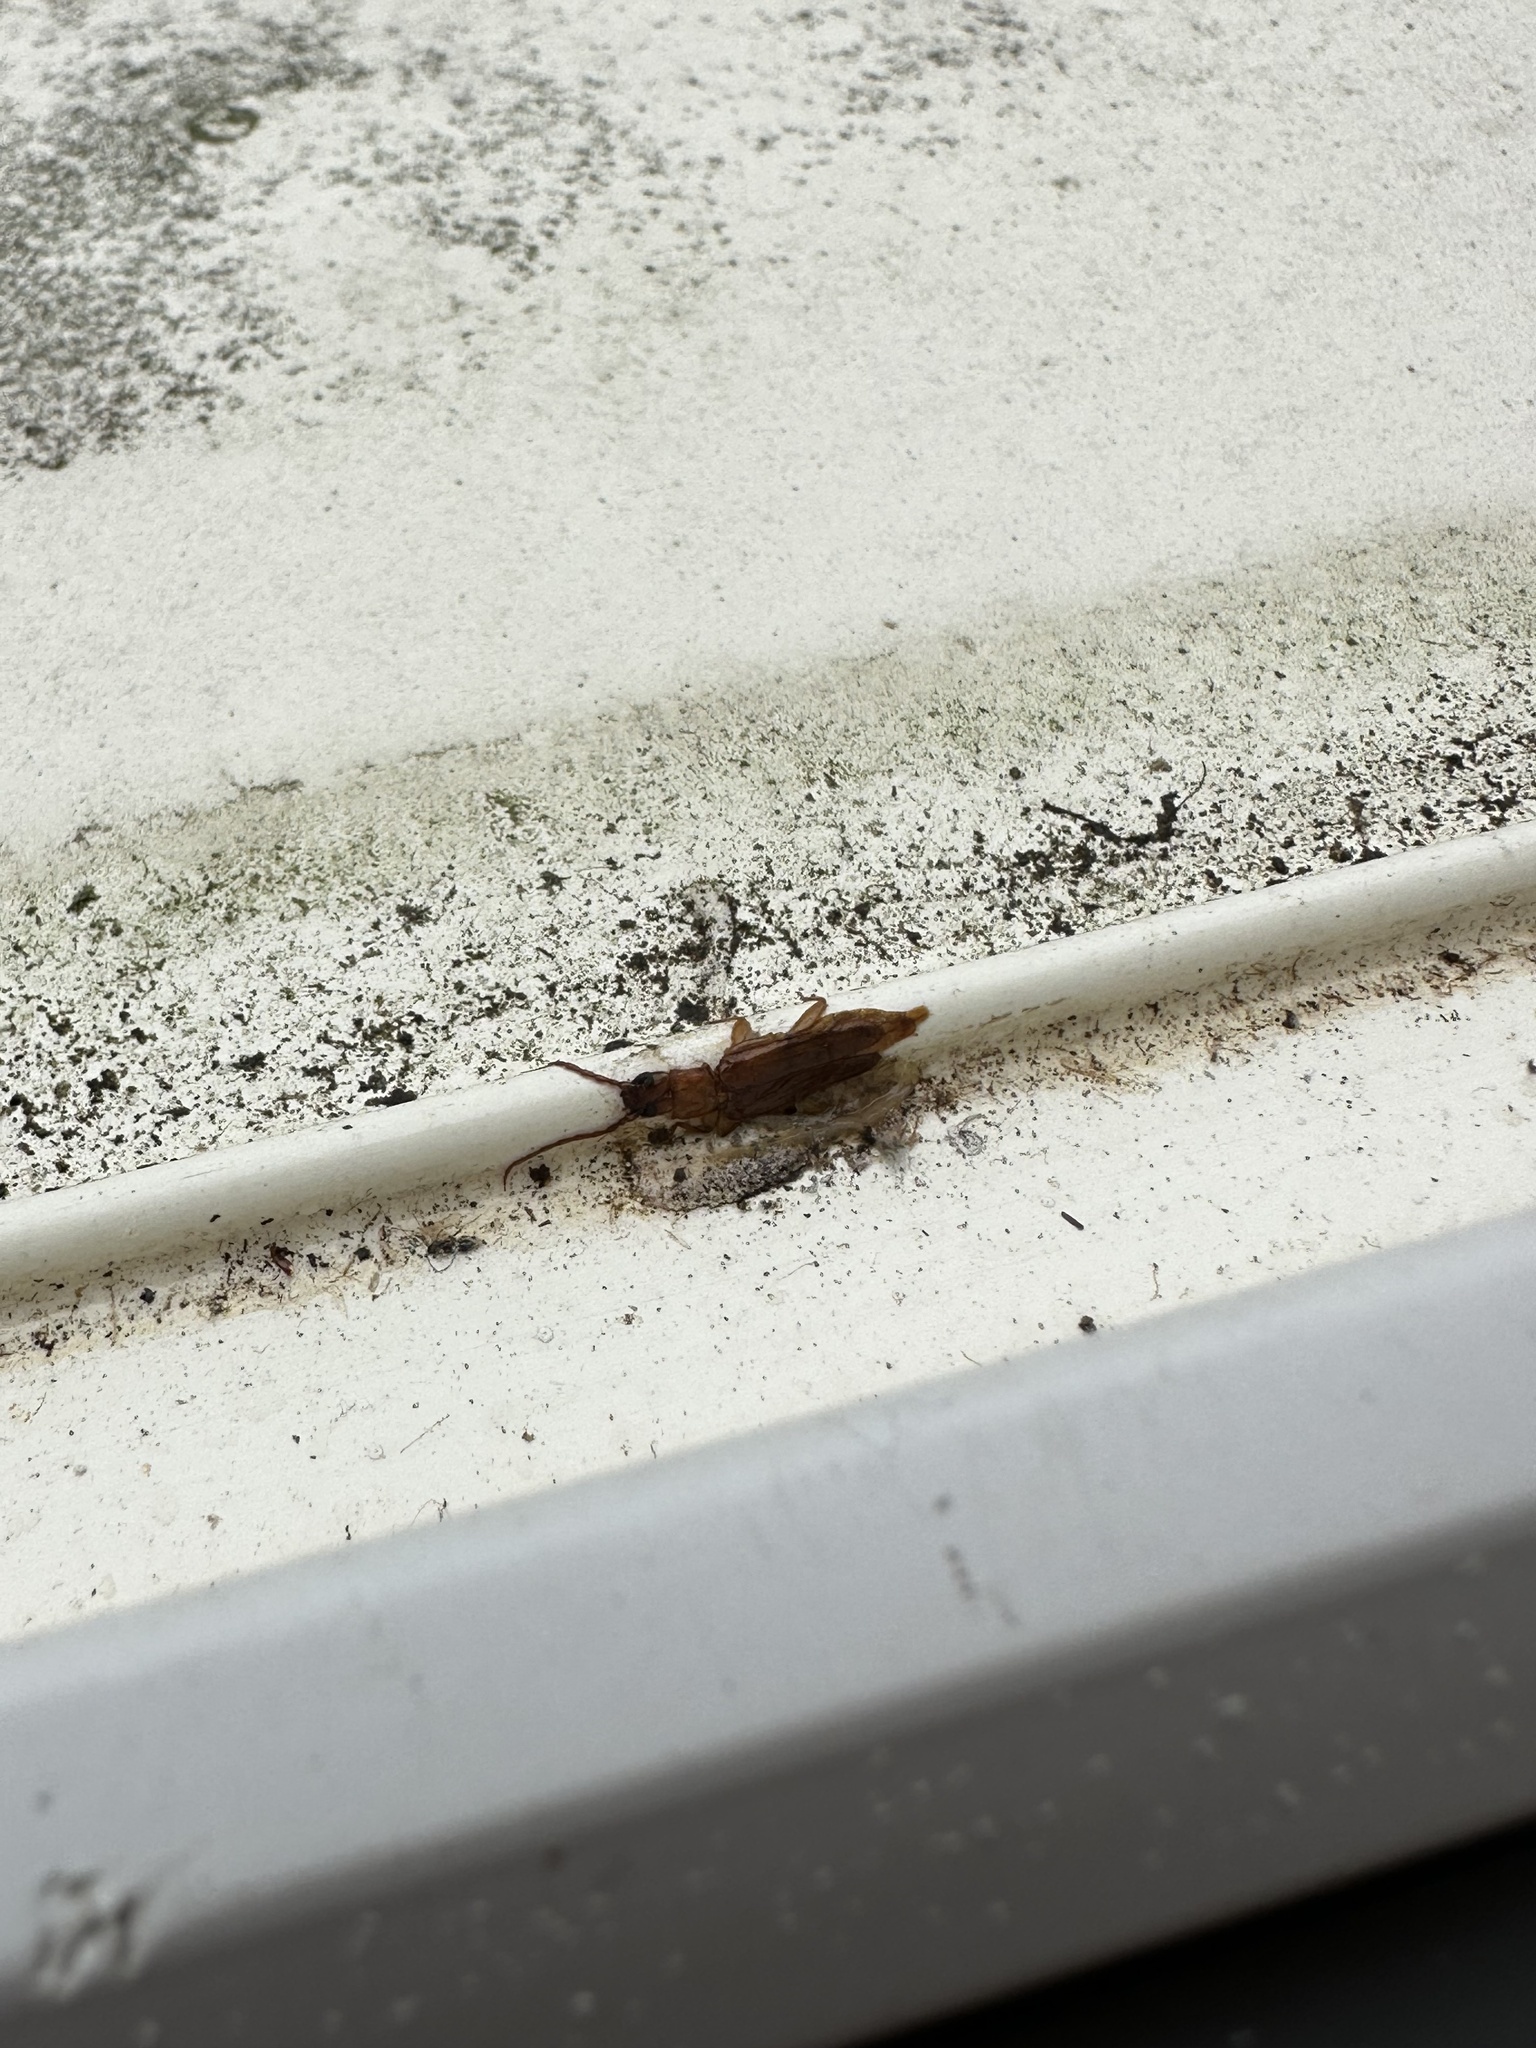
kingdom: Animalia
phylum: Arthropoda
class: Insecta
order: Coleoptera
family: Cerambycidae
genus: Smodicum
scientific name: Smodicum cucujiforme
